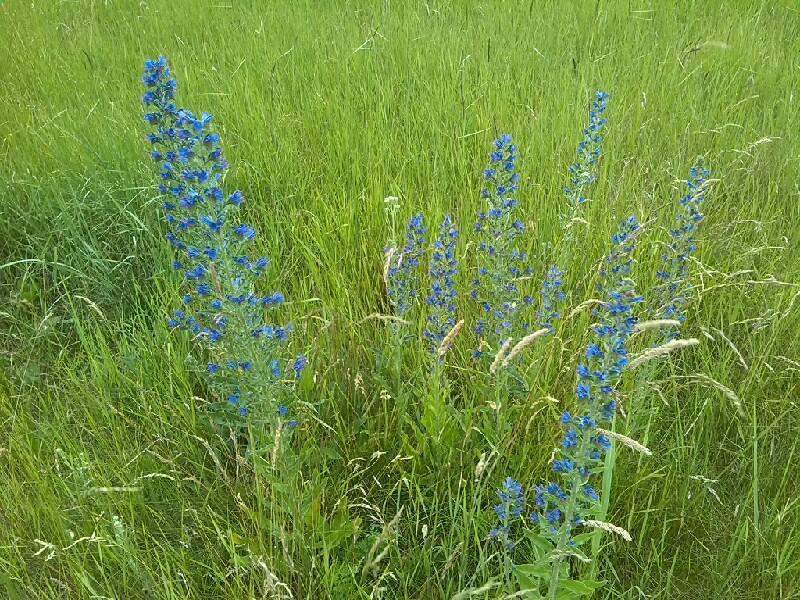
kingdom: Plantae
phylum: Tracheophyta
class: Magnoliopsida
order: Boraginales
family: Boraginaceae
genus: Echium
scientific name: Echium vulgare
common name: Common viper's bugloss
